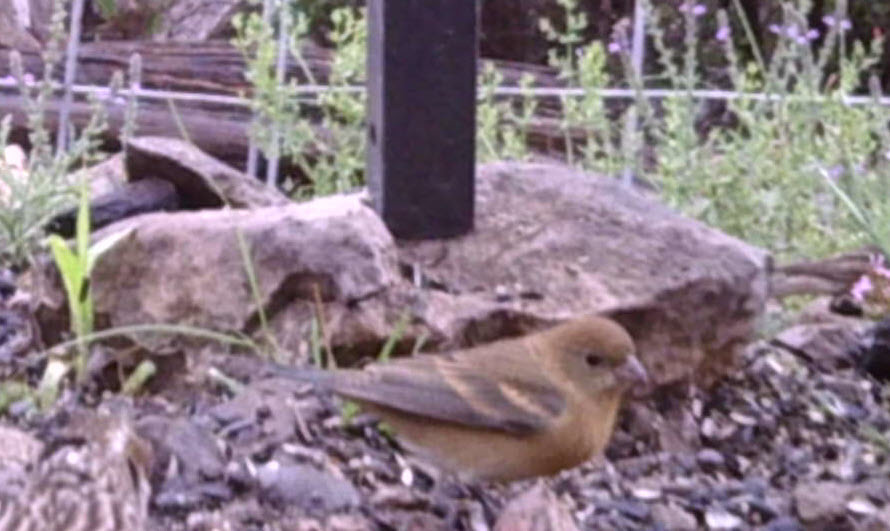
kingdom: Animalia
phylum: Chordata
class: Aves
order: Passeriformes
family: Cardinalidae
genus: Passerina
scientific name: Passerina amoena
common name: Lazuli bunting
